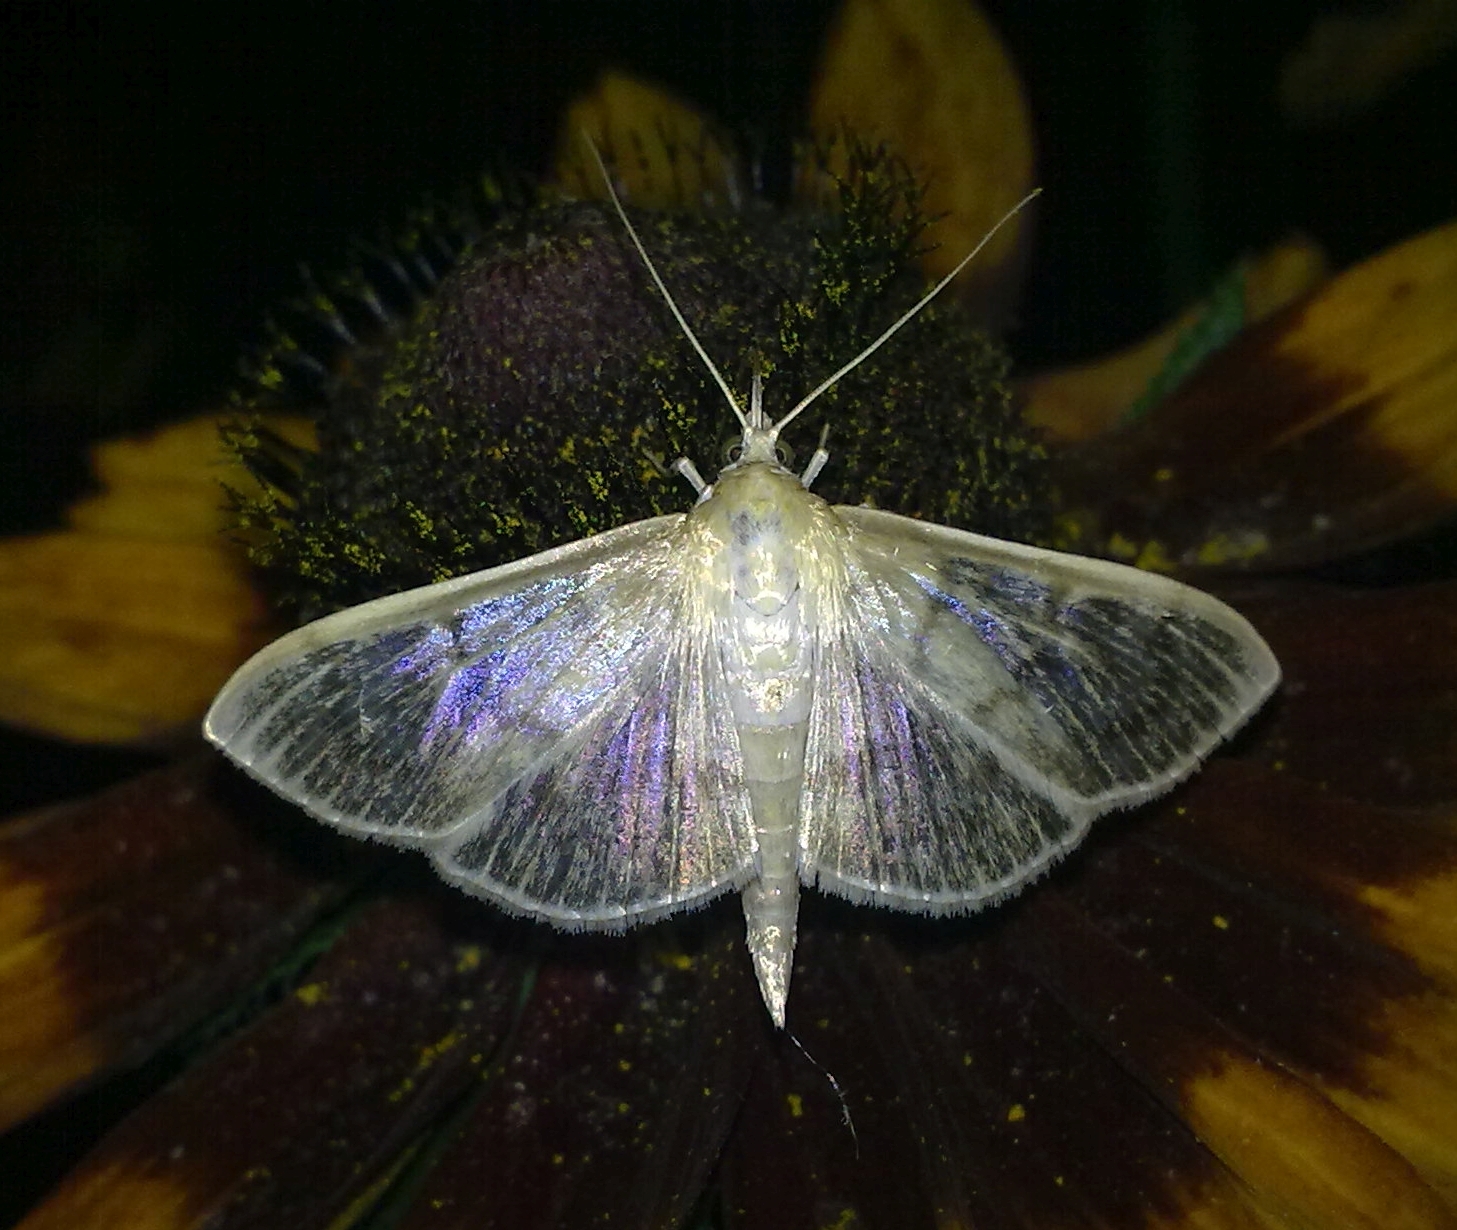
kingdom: Animalia
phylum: Arthropoda
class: Insecta
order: Lepidoptera
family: Crambidae
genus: Patania
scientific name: Patania ruralis
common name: Mother of pearl
